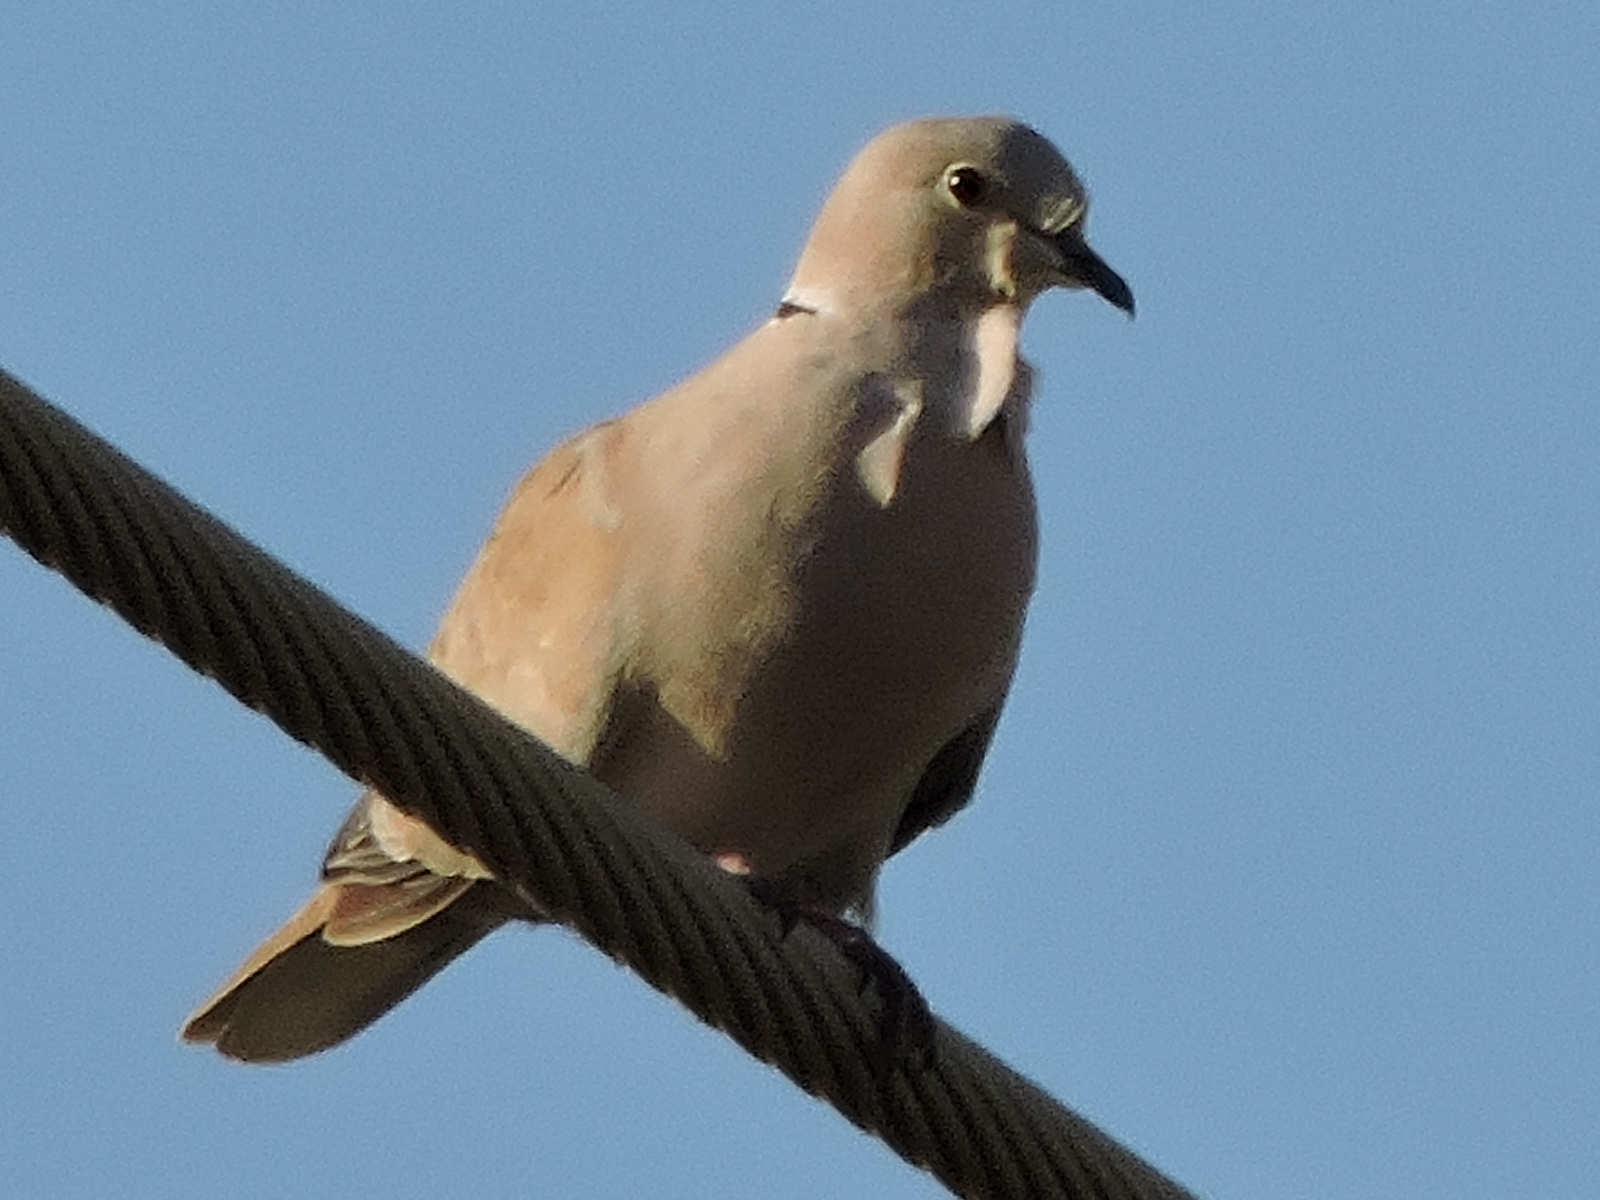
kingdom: Animalia
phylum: Chordata
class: Aves
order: Columbiformes
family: Columbidae
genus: Streptopelia
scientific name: Streptopelia decaocto
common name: Eurasian collared dove
